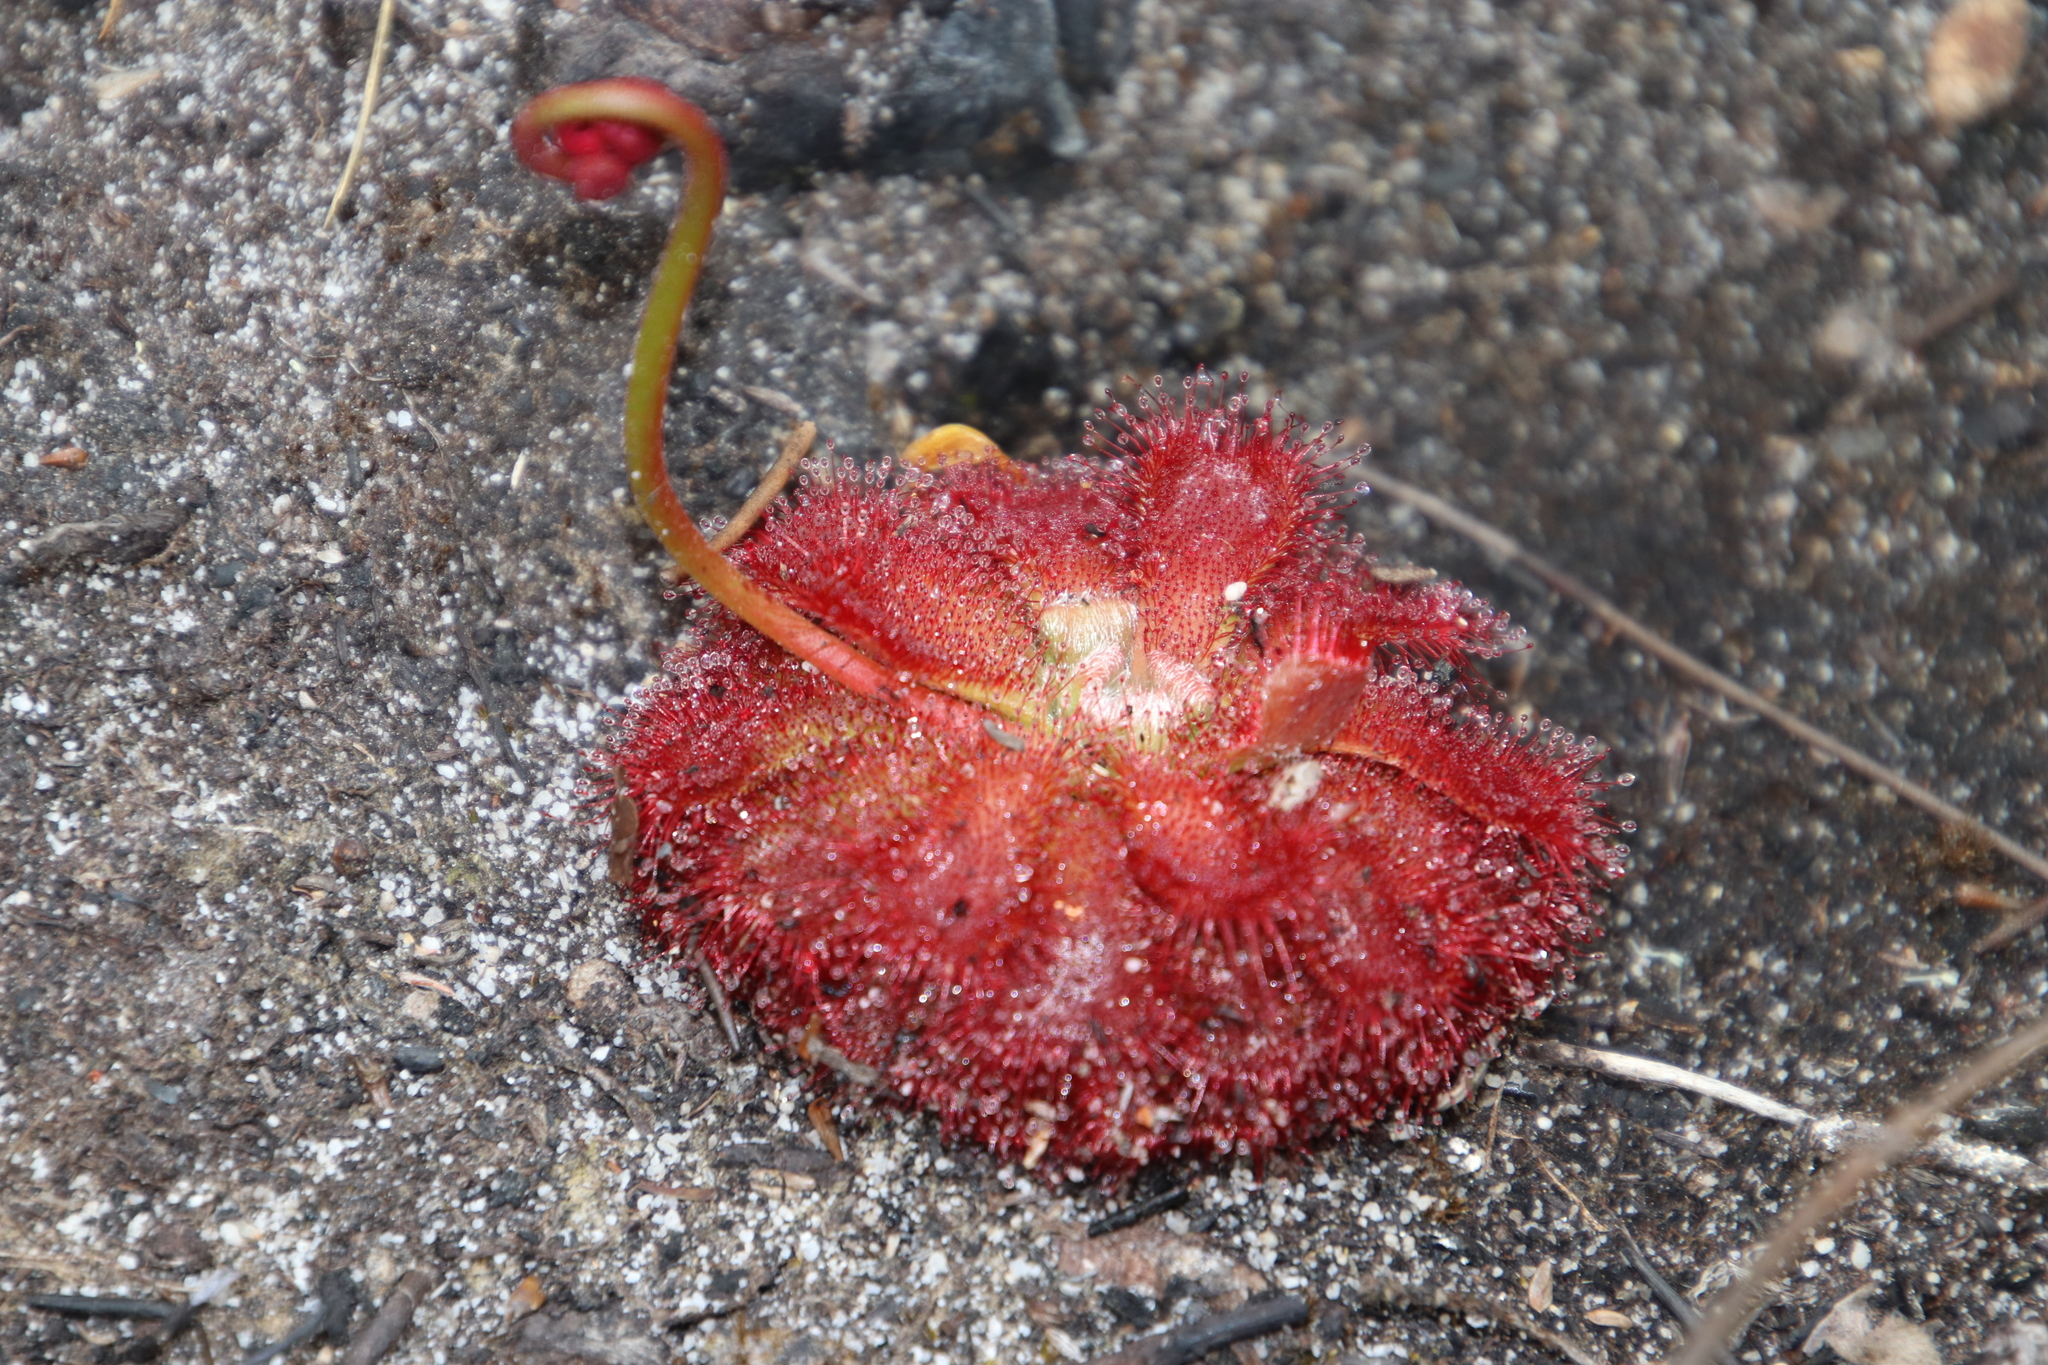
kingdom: Plantae
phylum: Tracheophyta
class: Magnoliopsida
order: Caryophyllales
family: Droseraceae
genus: Drosera
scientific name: Drosera aliciae
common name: Alice sundew
